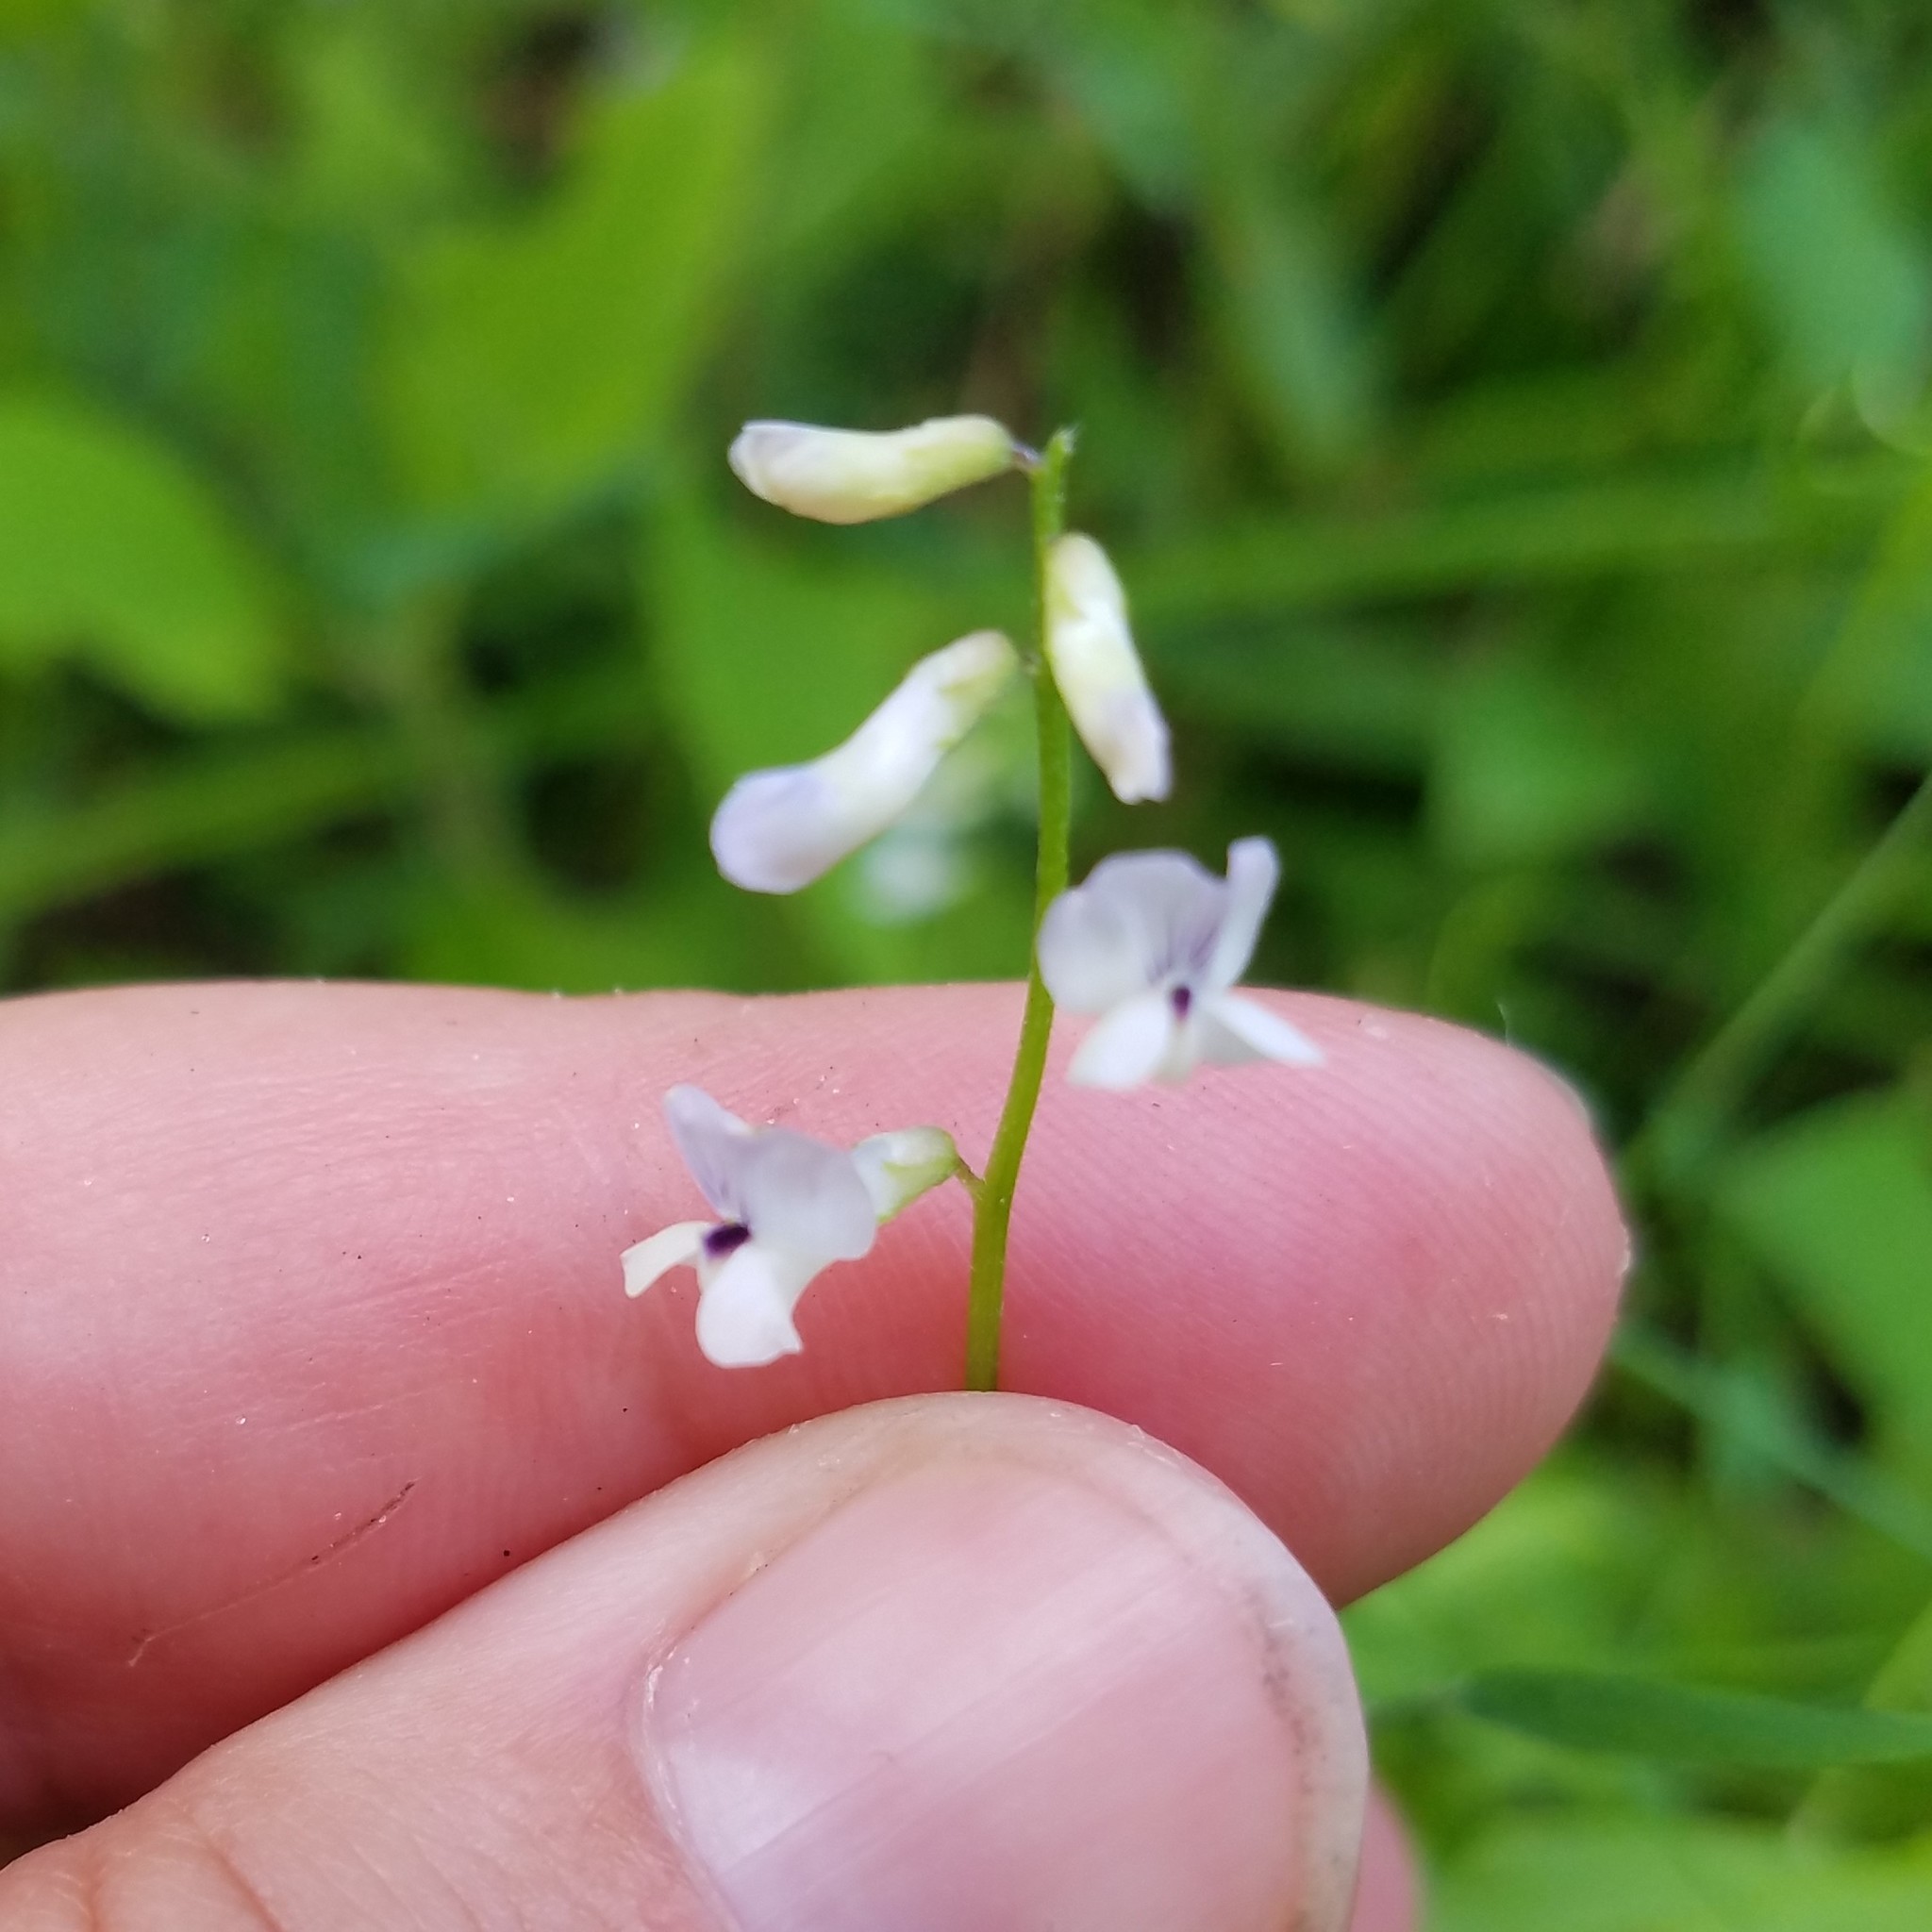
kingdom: Plantae
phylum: Tracheophyta
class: Magnoliopsida
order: Fabales
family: Fabaceae
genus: Vicia
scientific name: Vicia acutifolia
